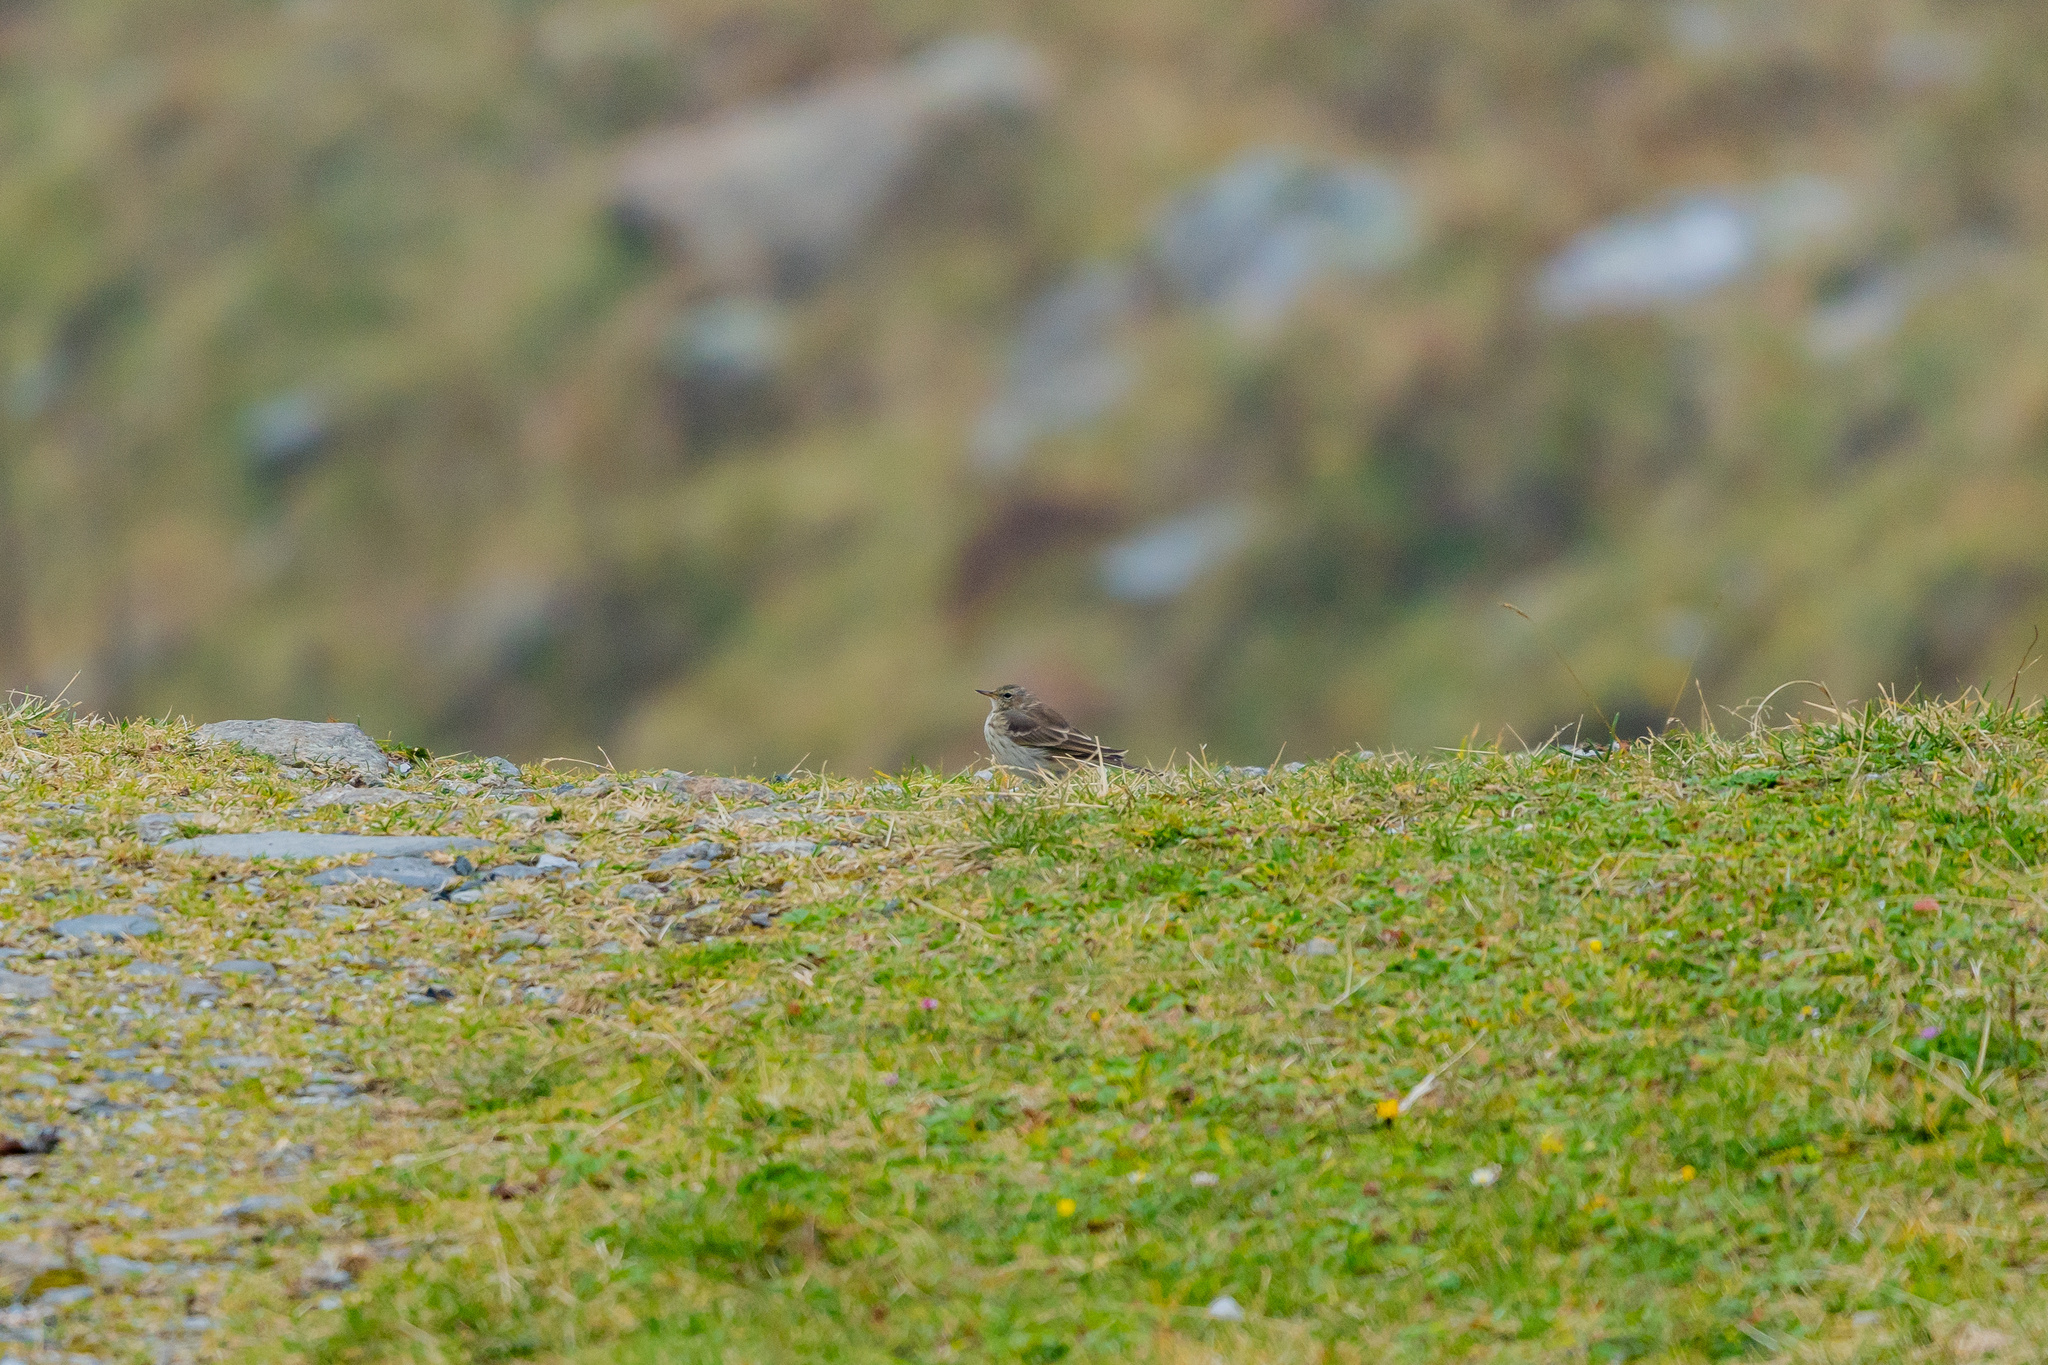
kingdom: Animalia
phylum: Chordata
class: Aves
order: Passeriformes
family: Motacillidae
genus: Anthus
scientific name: Anthus spinoletta
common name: Water pipit
